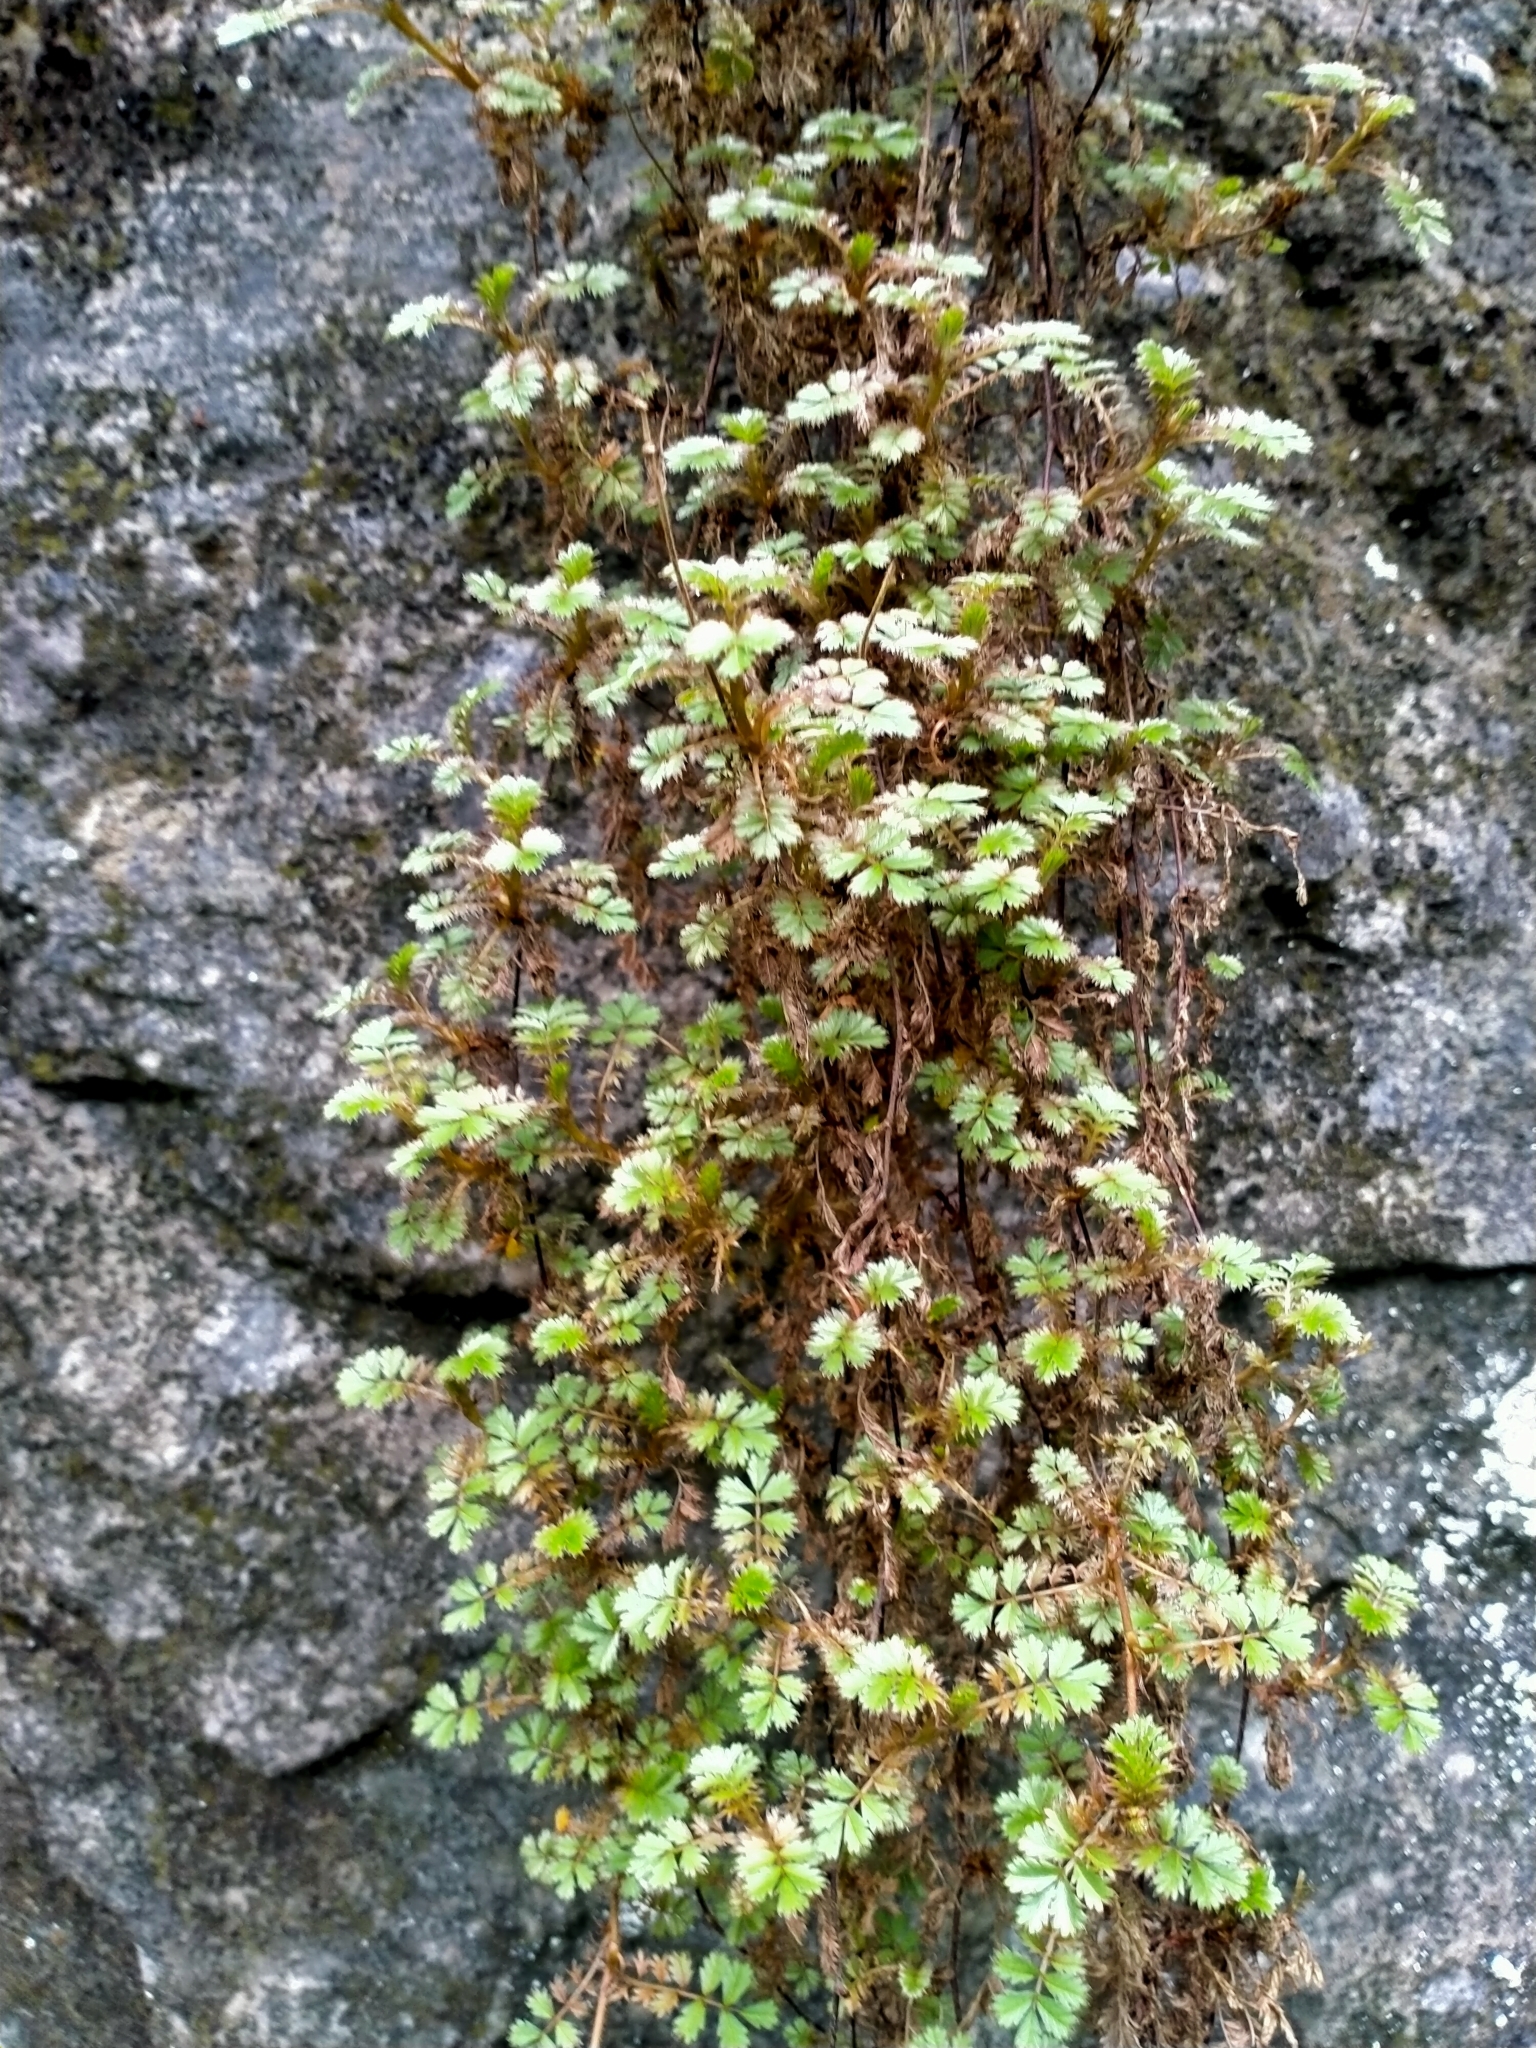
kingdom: Plantae
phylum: Tracheophyta
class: Magnoliopsida
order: Rosales
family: Rosaceae
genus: Acaena
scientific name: Acaena anserinifolia
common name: Bronze pirri-pirri-bur
